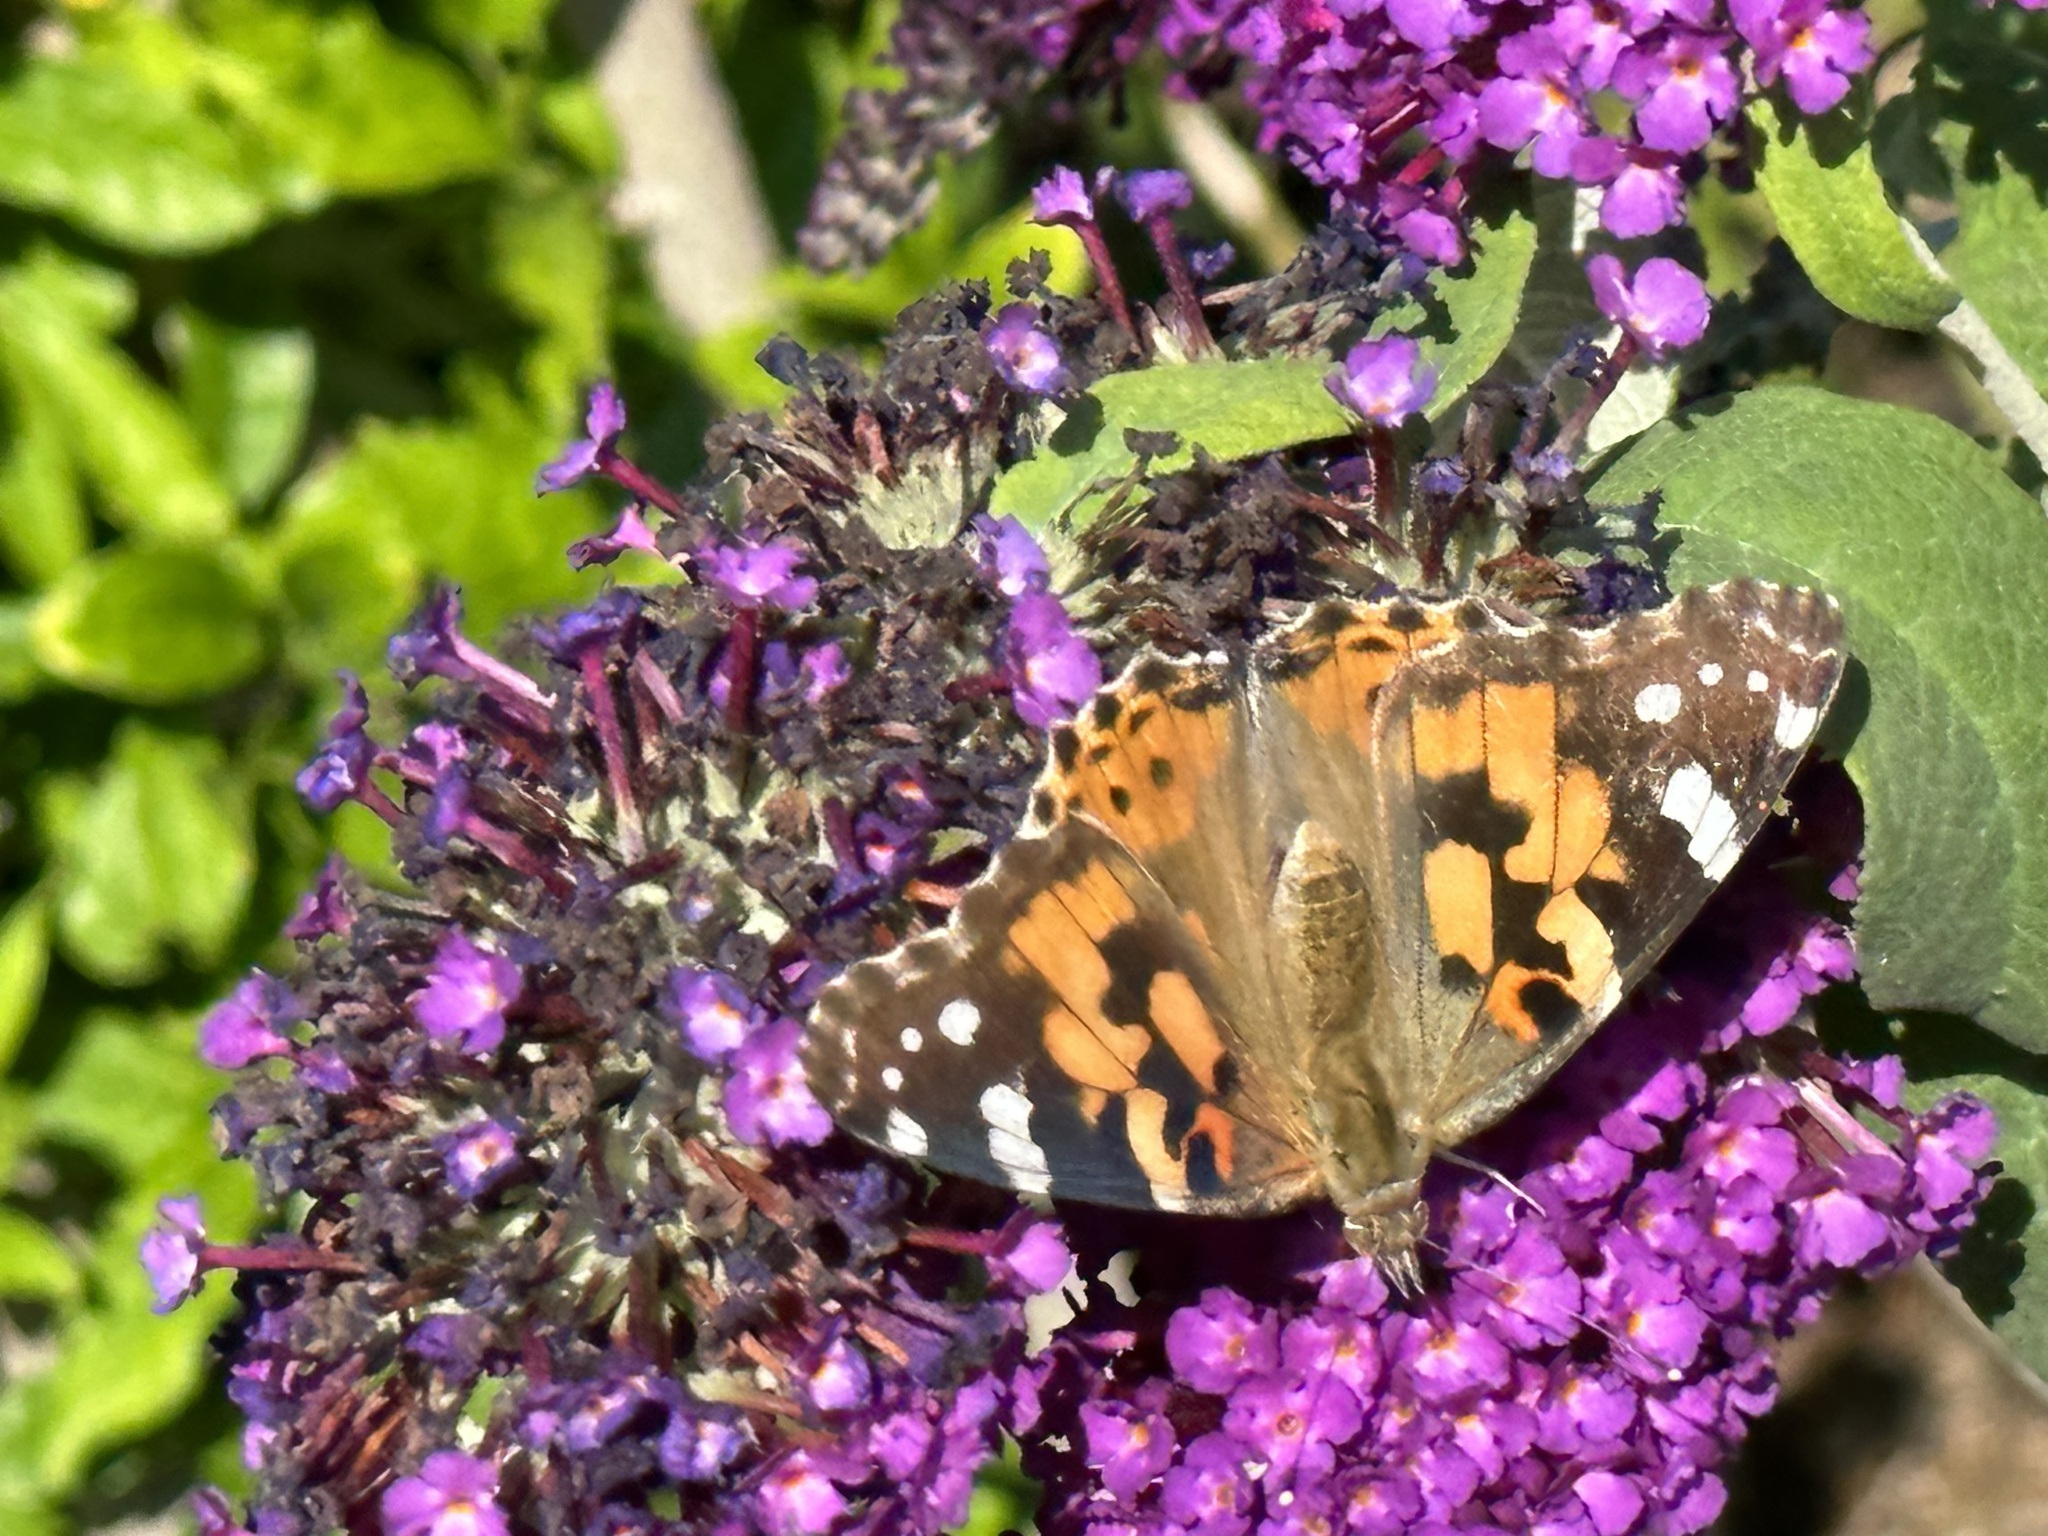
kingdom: Animalia
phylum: Arthropoda
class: Insecta
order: Lepidoptera
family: Nymphalidae
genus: Vanessa
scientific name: Vanessa cardui
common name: Painted lady
